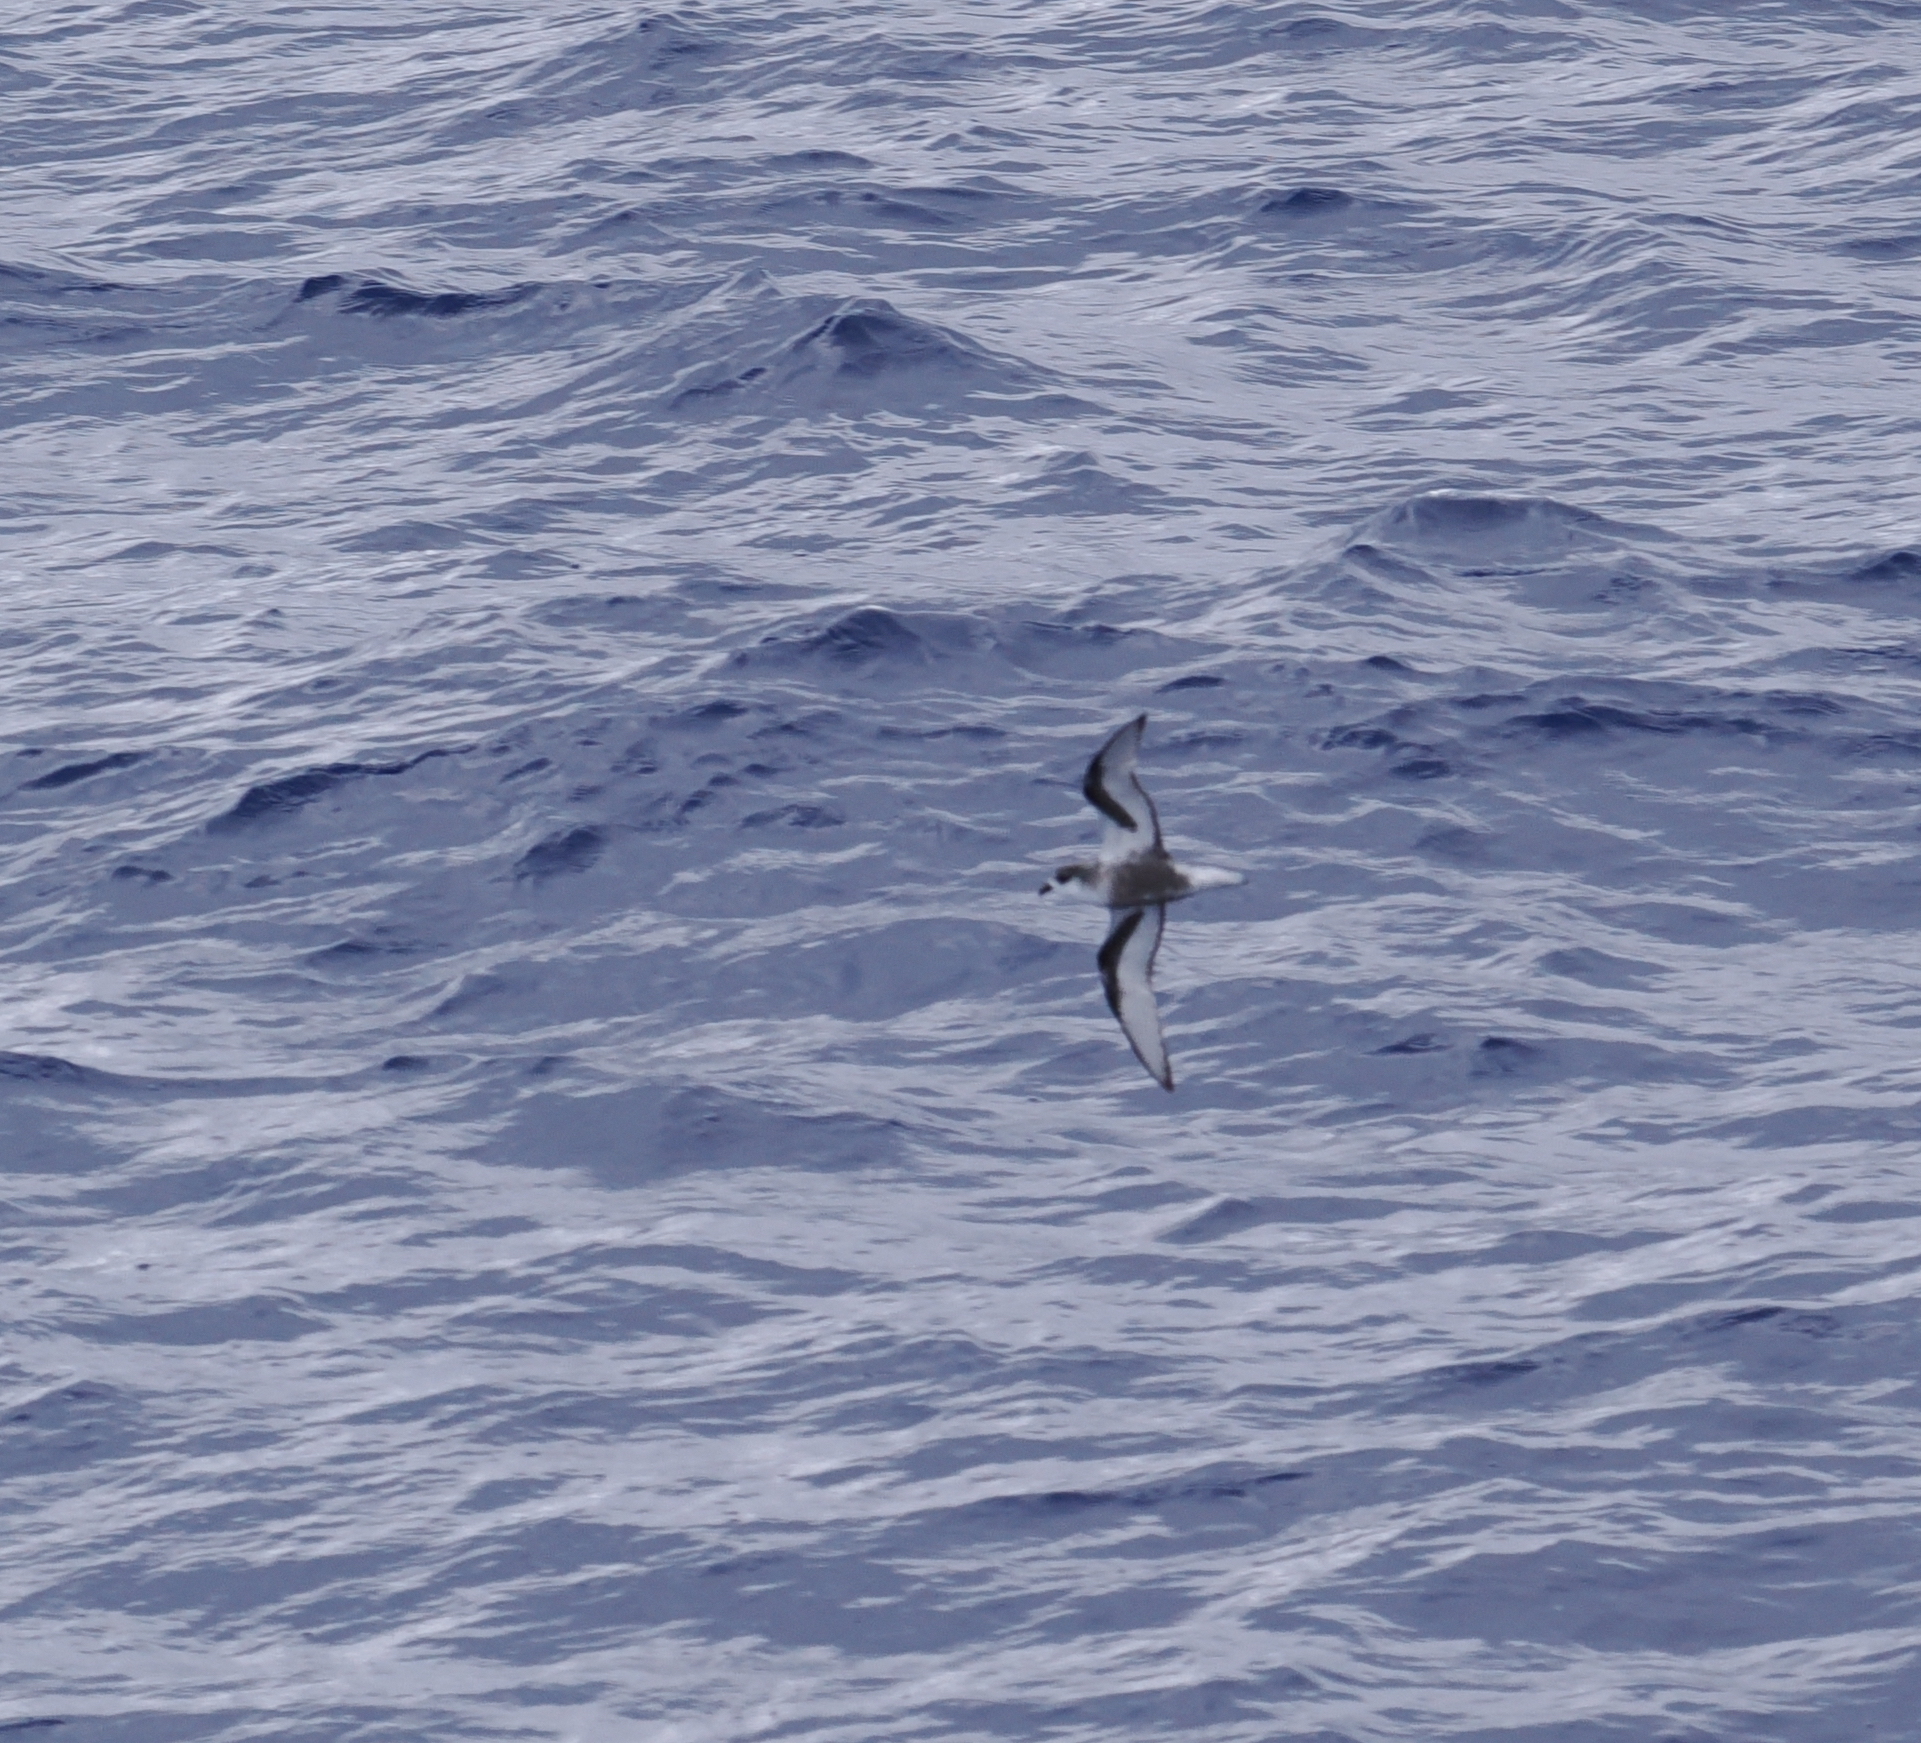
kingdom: Animalia
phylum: Chordata
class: Aves
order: Procellariiformes
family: Procellariidae
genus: Pterodroma
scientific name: Pterodroma inexpectata
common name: Mottled petrel
